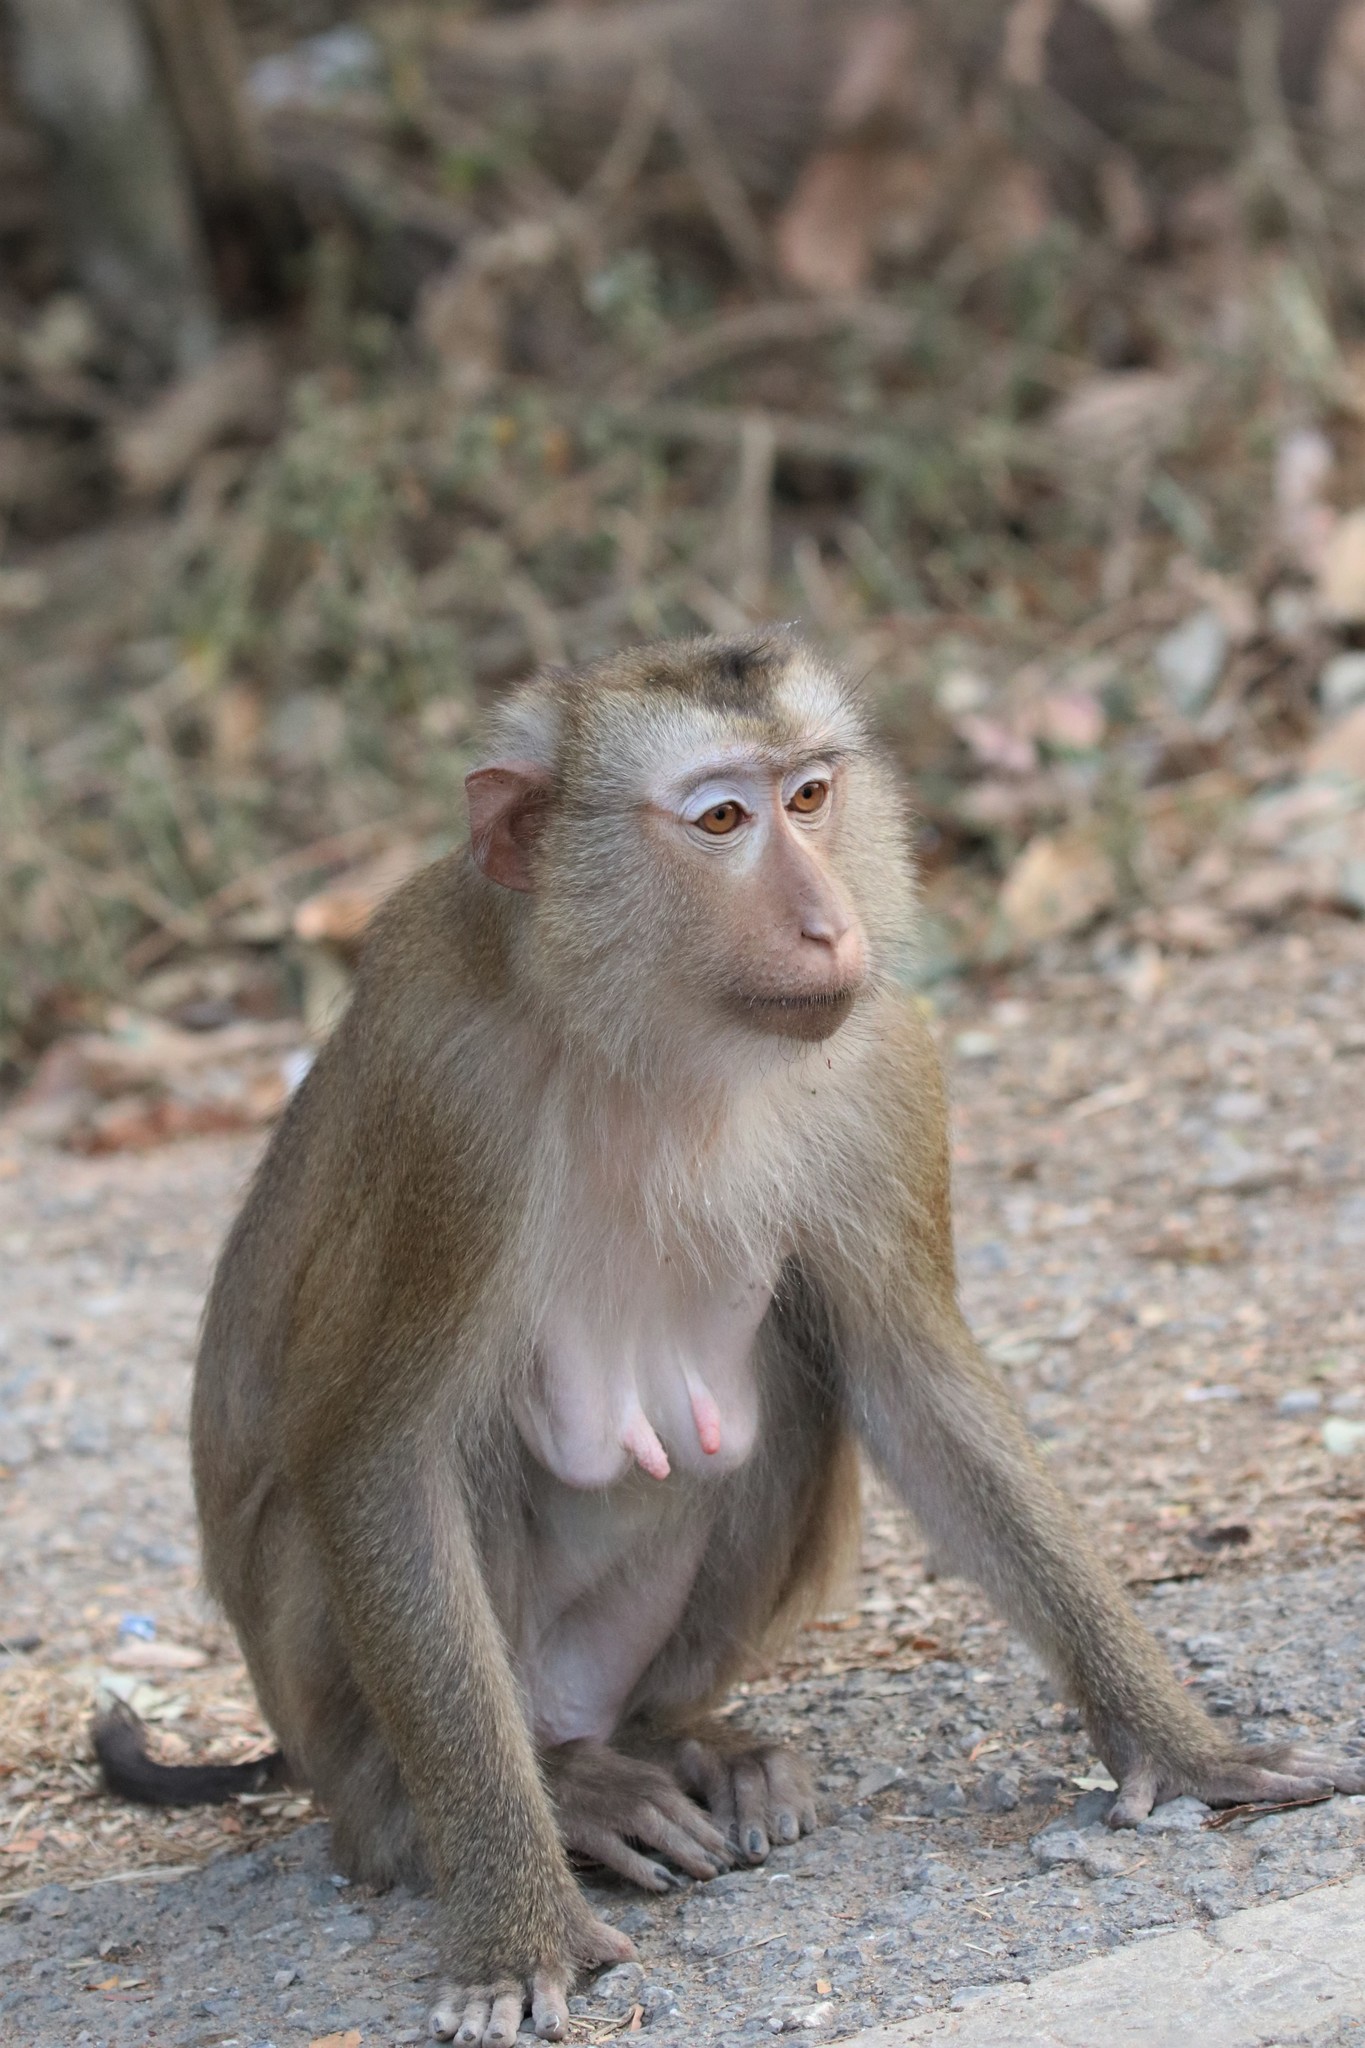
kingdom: Animalia
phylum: Chordata
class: Mammalia
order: Primates
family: Cercopithecidae
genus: Macaca
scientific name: Macaca leonina
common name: Northern pig-tailed macaque
